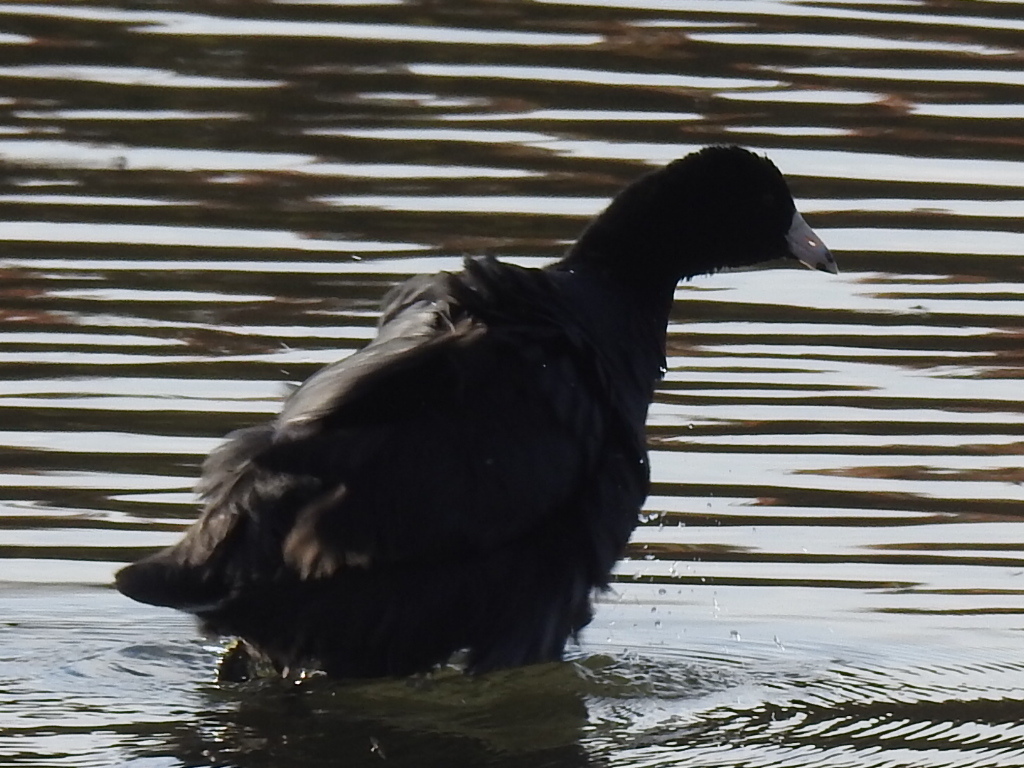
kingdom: Animalia
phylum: Chordata
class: Aves
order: Gruiformes
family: Rallidae
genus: Fulica
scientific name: Fulica americana
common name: American coot
